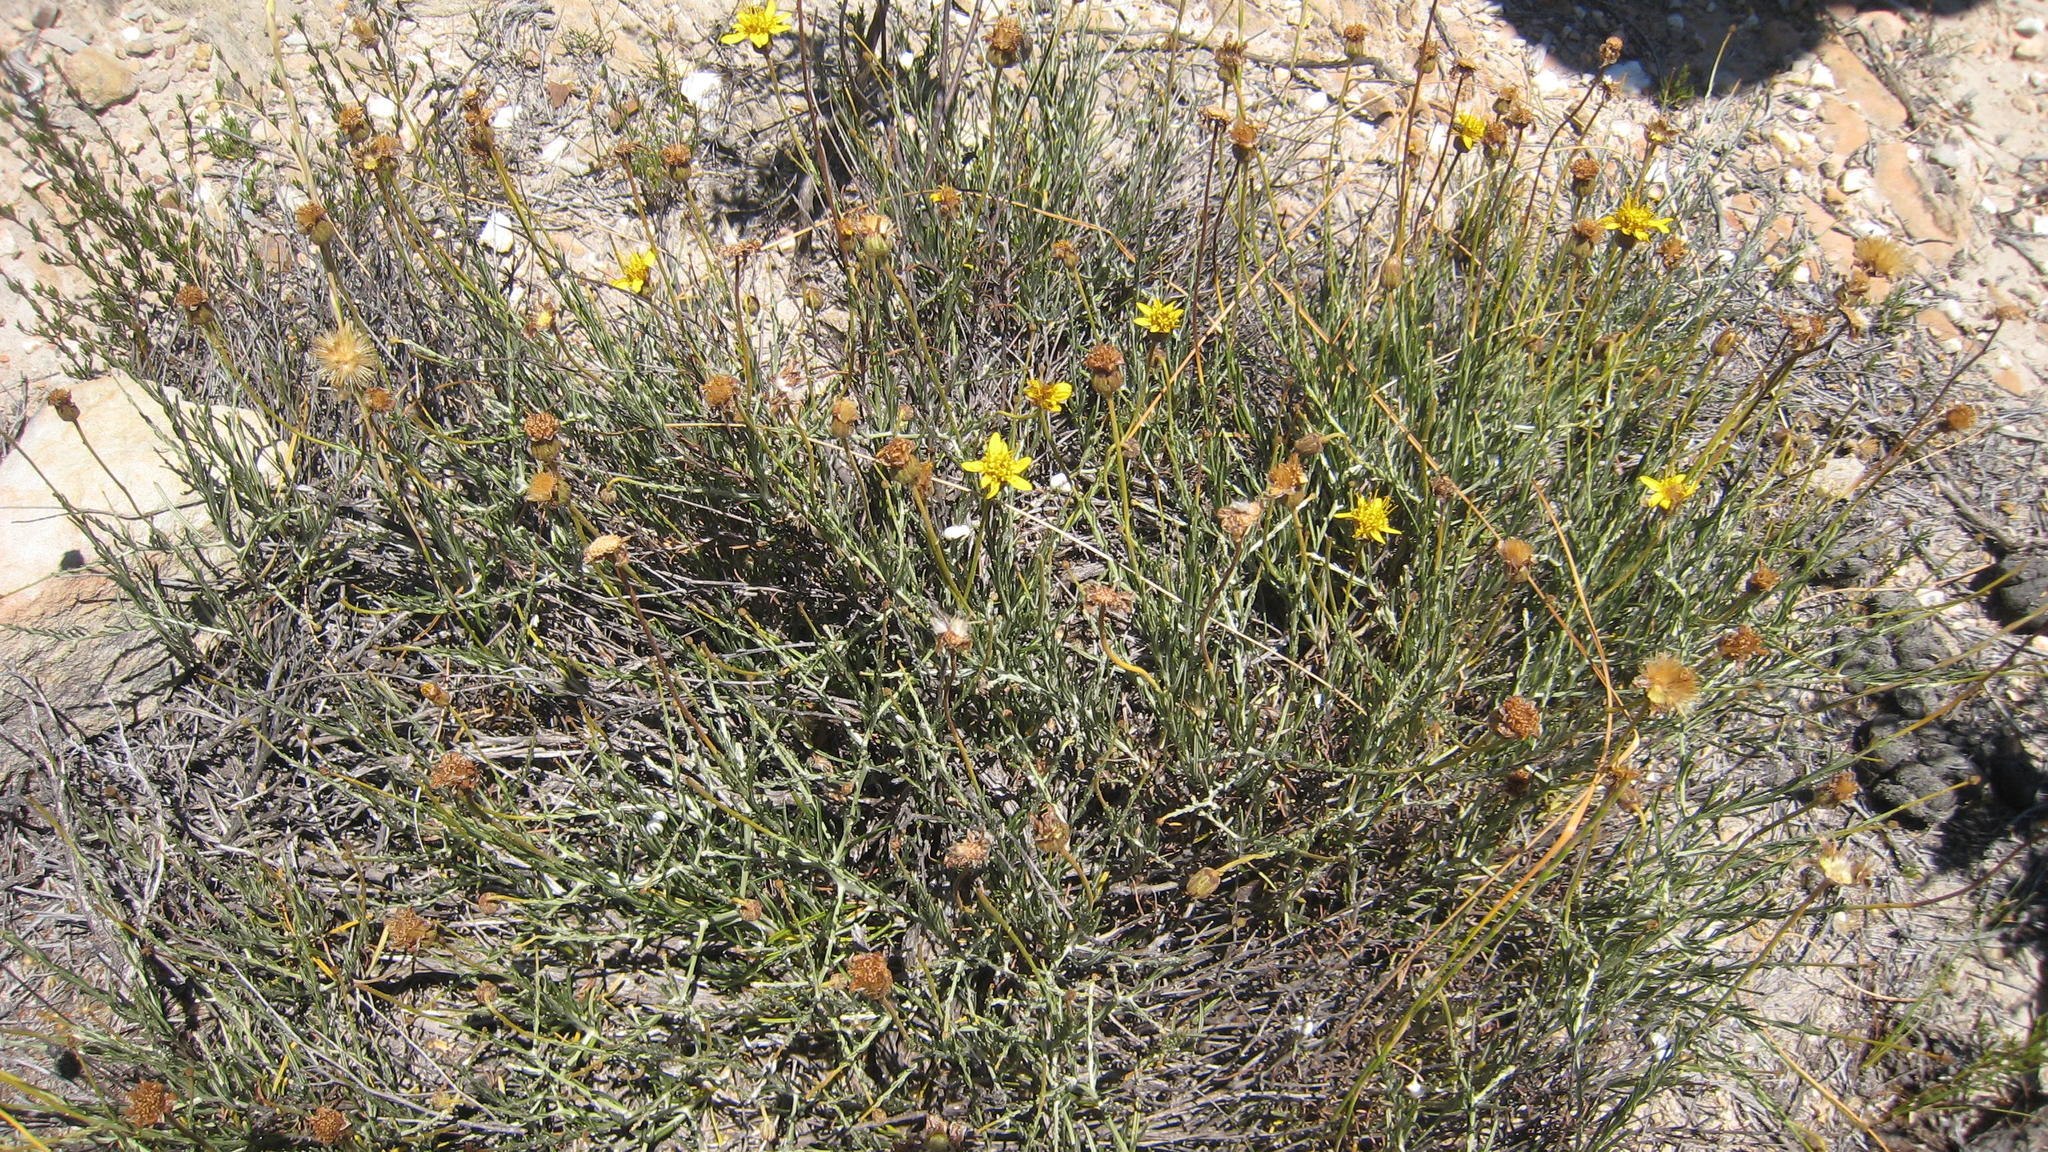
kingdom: Plantae
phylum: Tracheophyta
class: Magnoliopsida
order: Asterales
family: Asteraceae
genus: Heterolepis
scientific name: Heterolepis peduncularis
